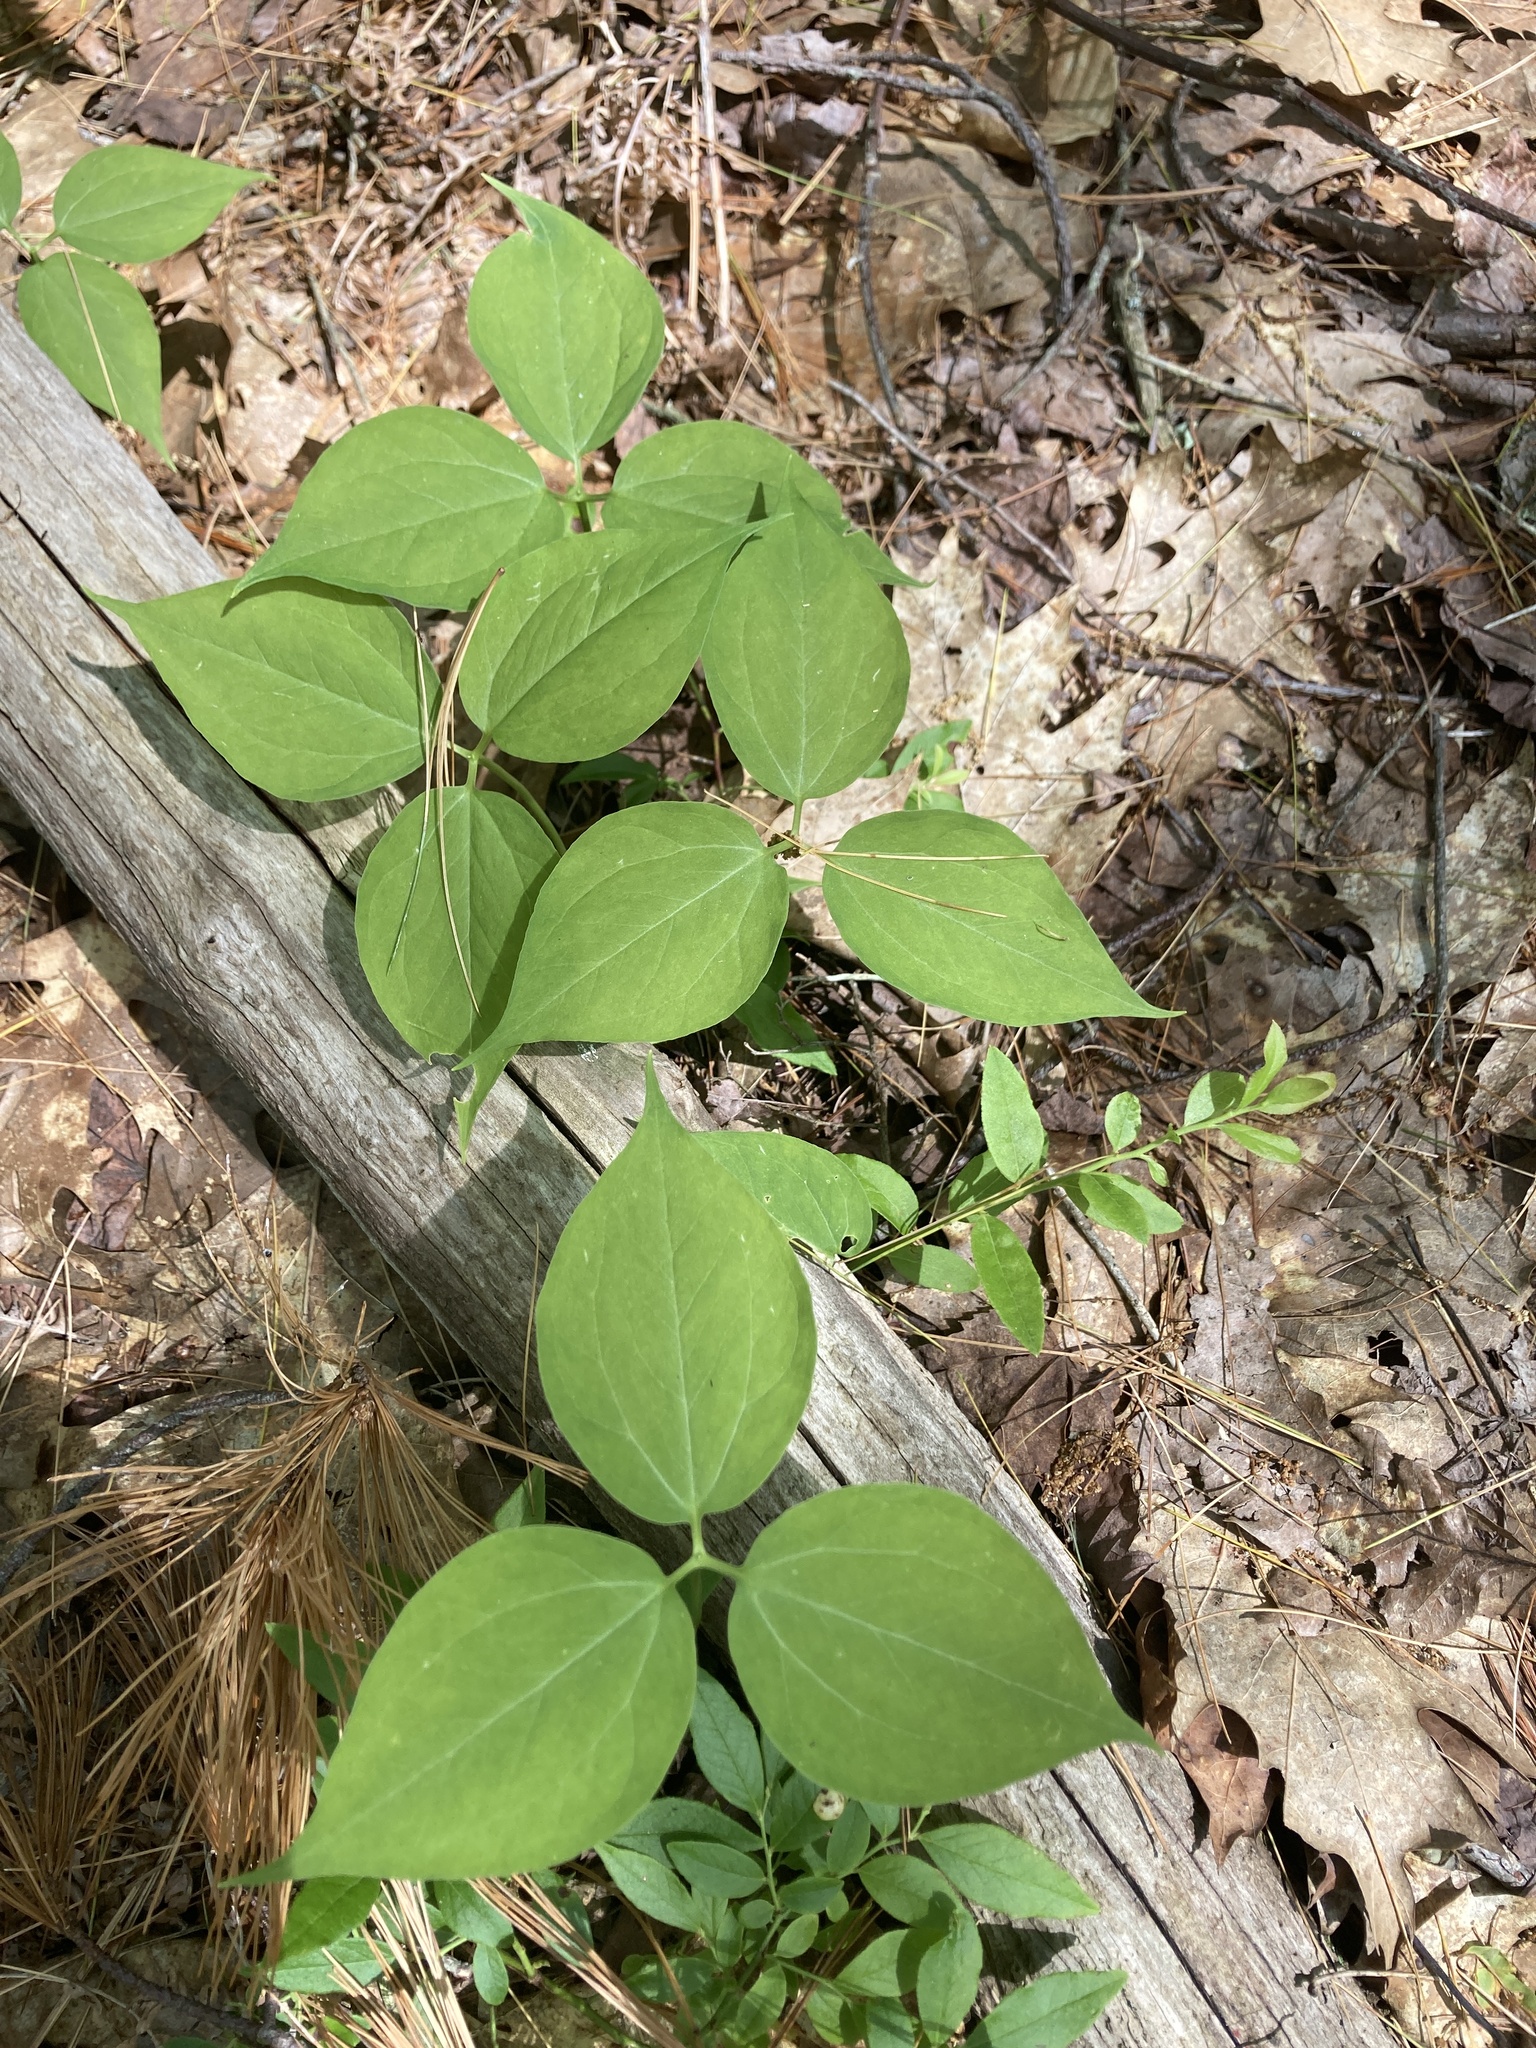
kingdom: Plantae
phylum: Tracheophyta
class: Liliopsida
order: Liliales
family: Melanthiaceae
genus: Trillium
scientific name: Trillium undulatum
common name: Paint trillium
